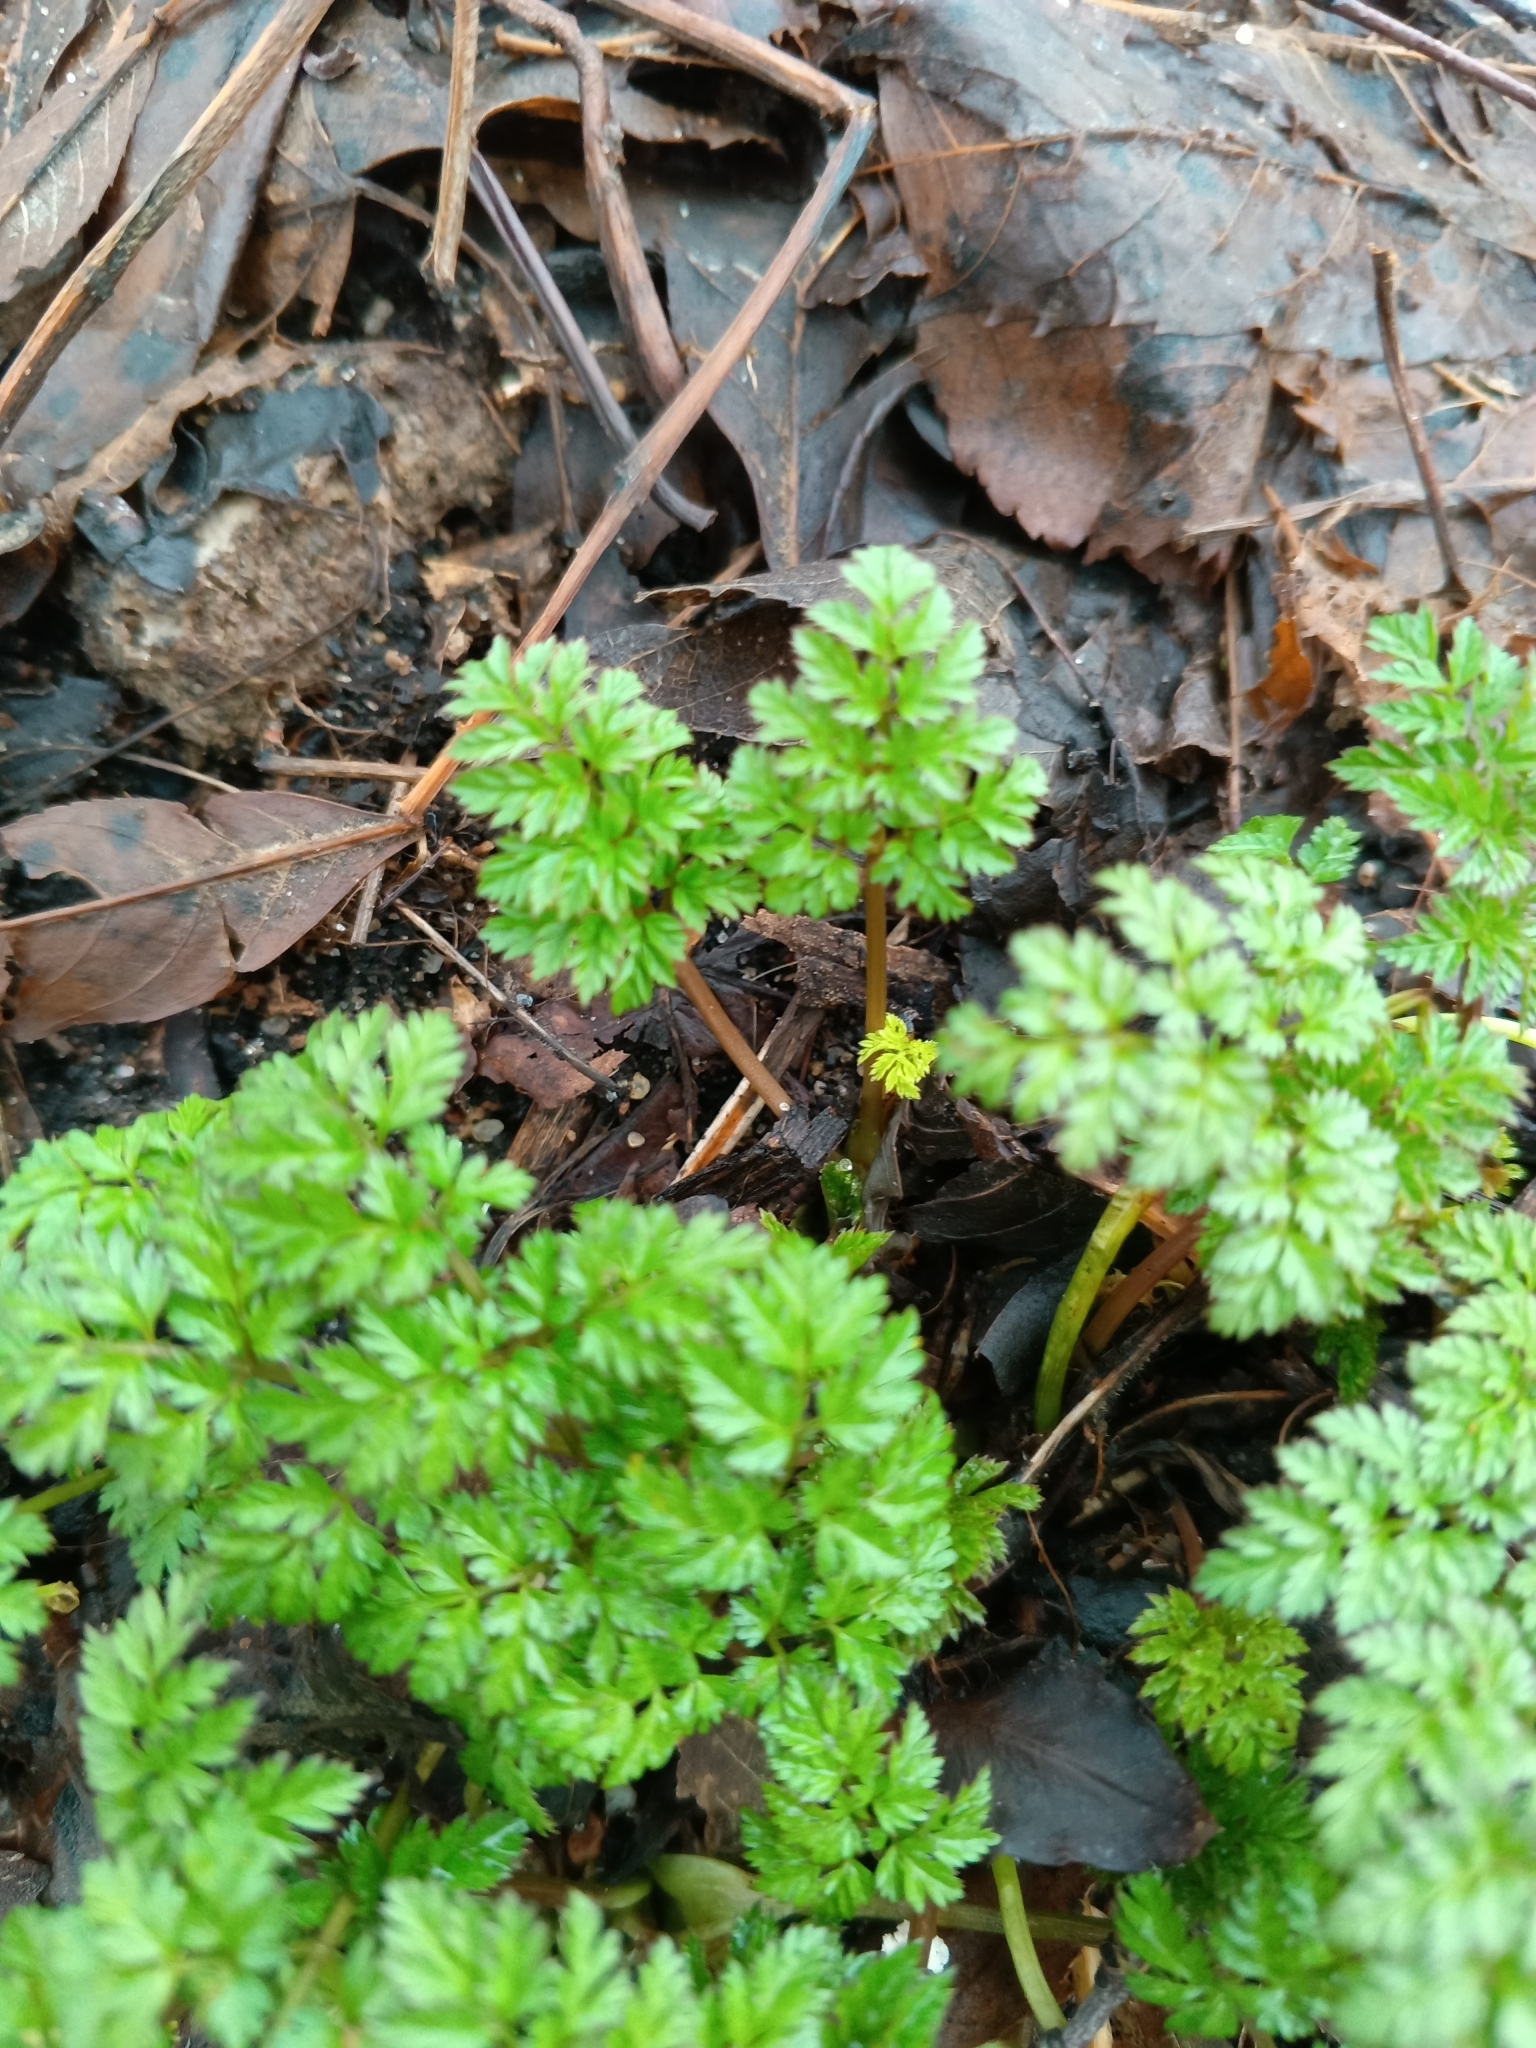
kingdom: Plantae
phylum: Tracheophyta
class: Magnoliopsida
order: Apiales
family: Apiaceae
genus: Anthriscus
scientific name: Anthriscus sylvestris
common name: Cow parsley
